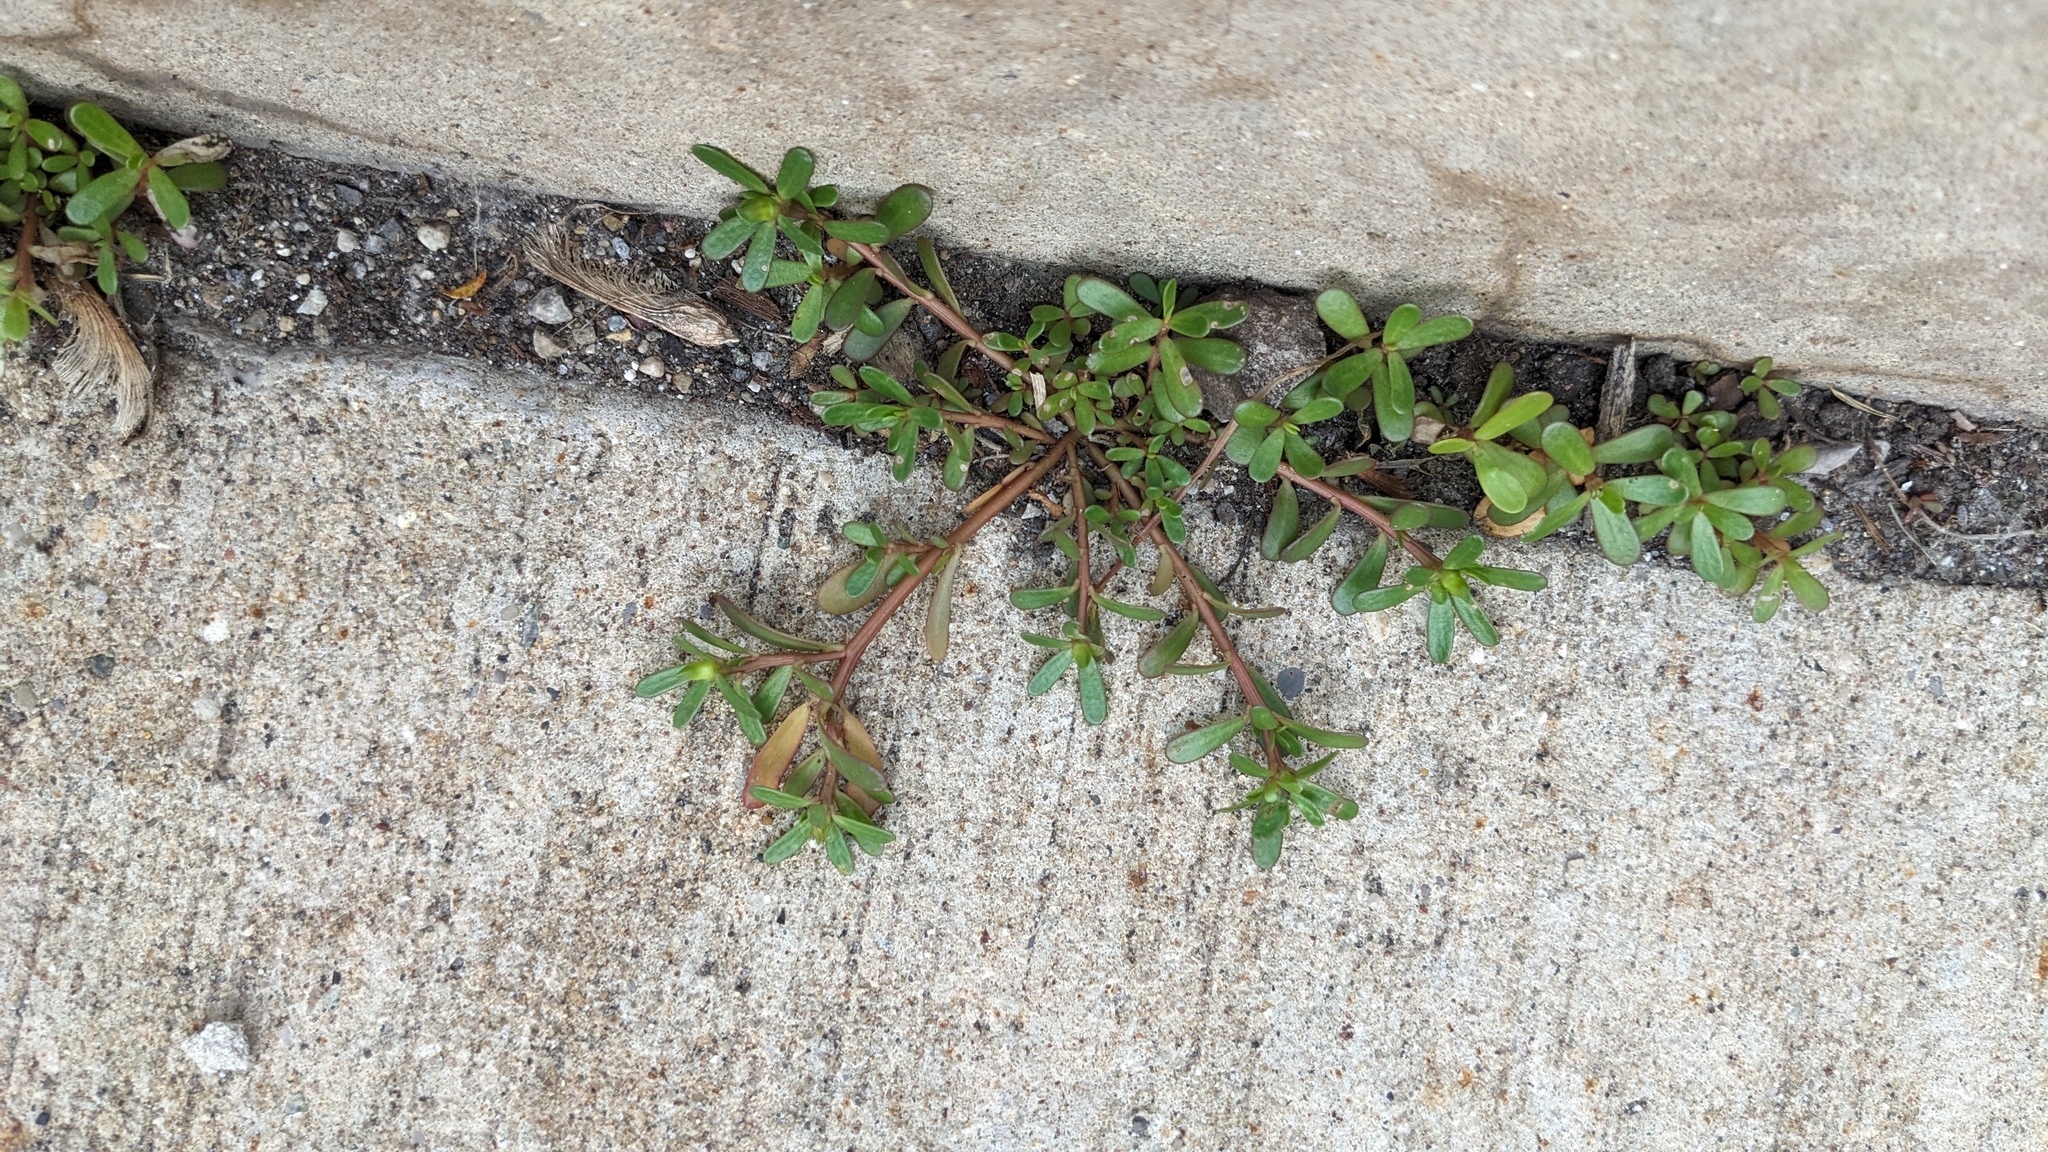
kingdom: Plantae
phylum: Tracheophyta
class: Magnoliopsida
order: Caryophyllales
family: Portulacaceae
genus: Portulaca
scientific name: Portulaca oleracea
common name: Common purslane
